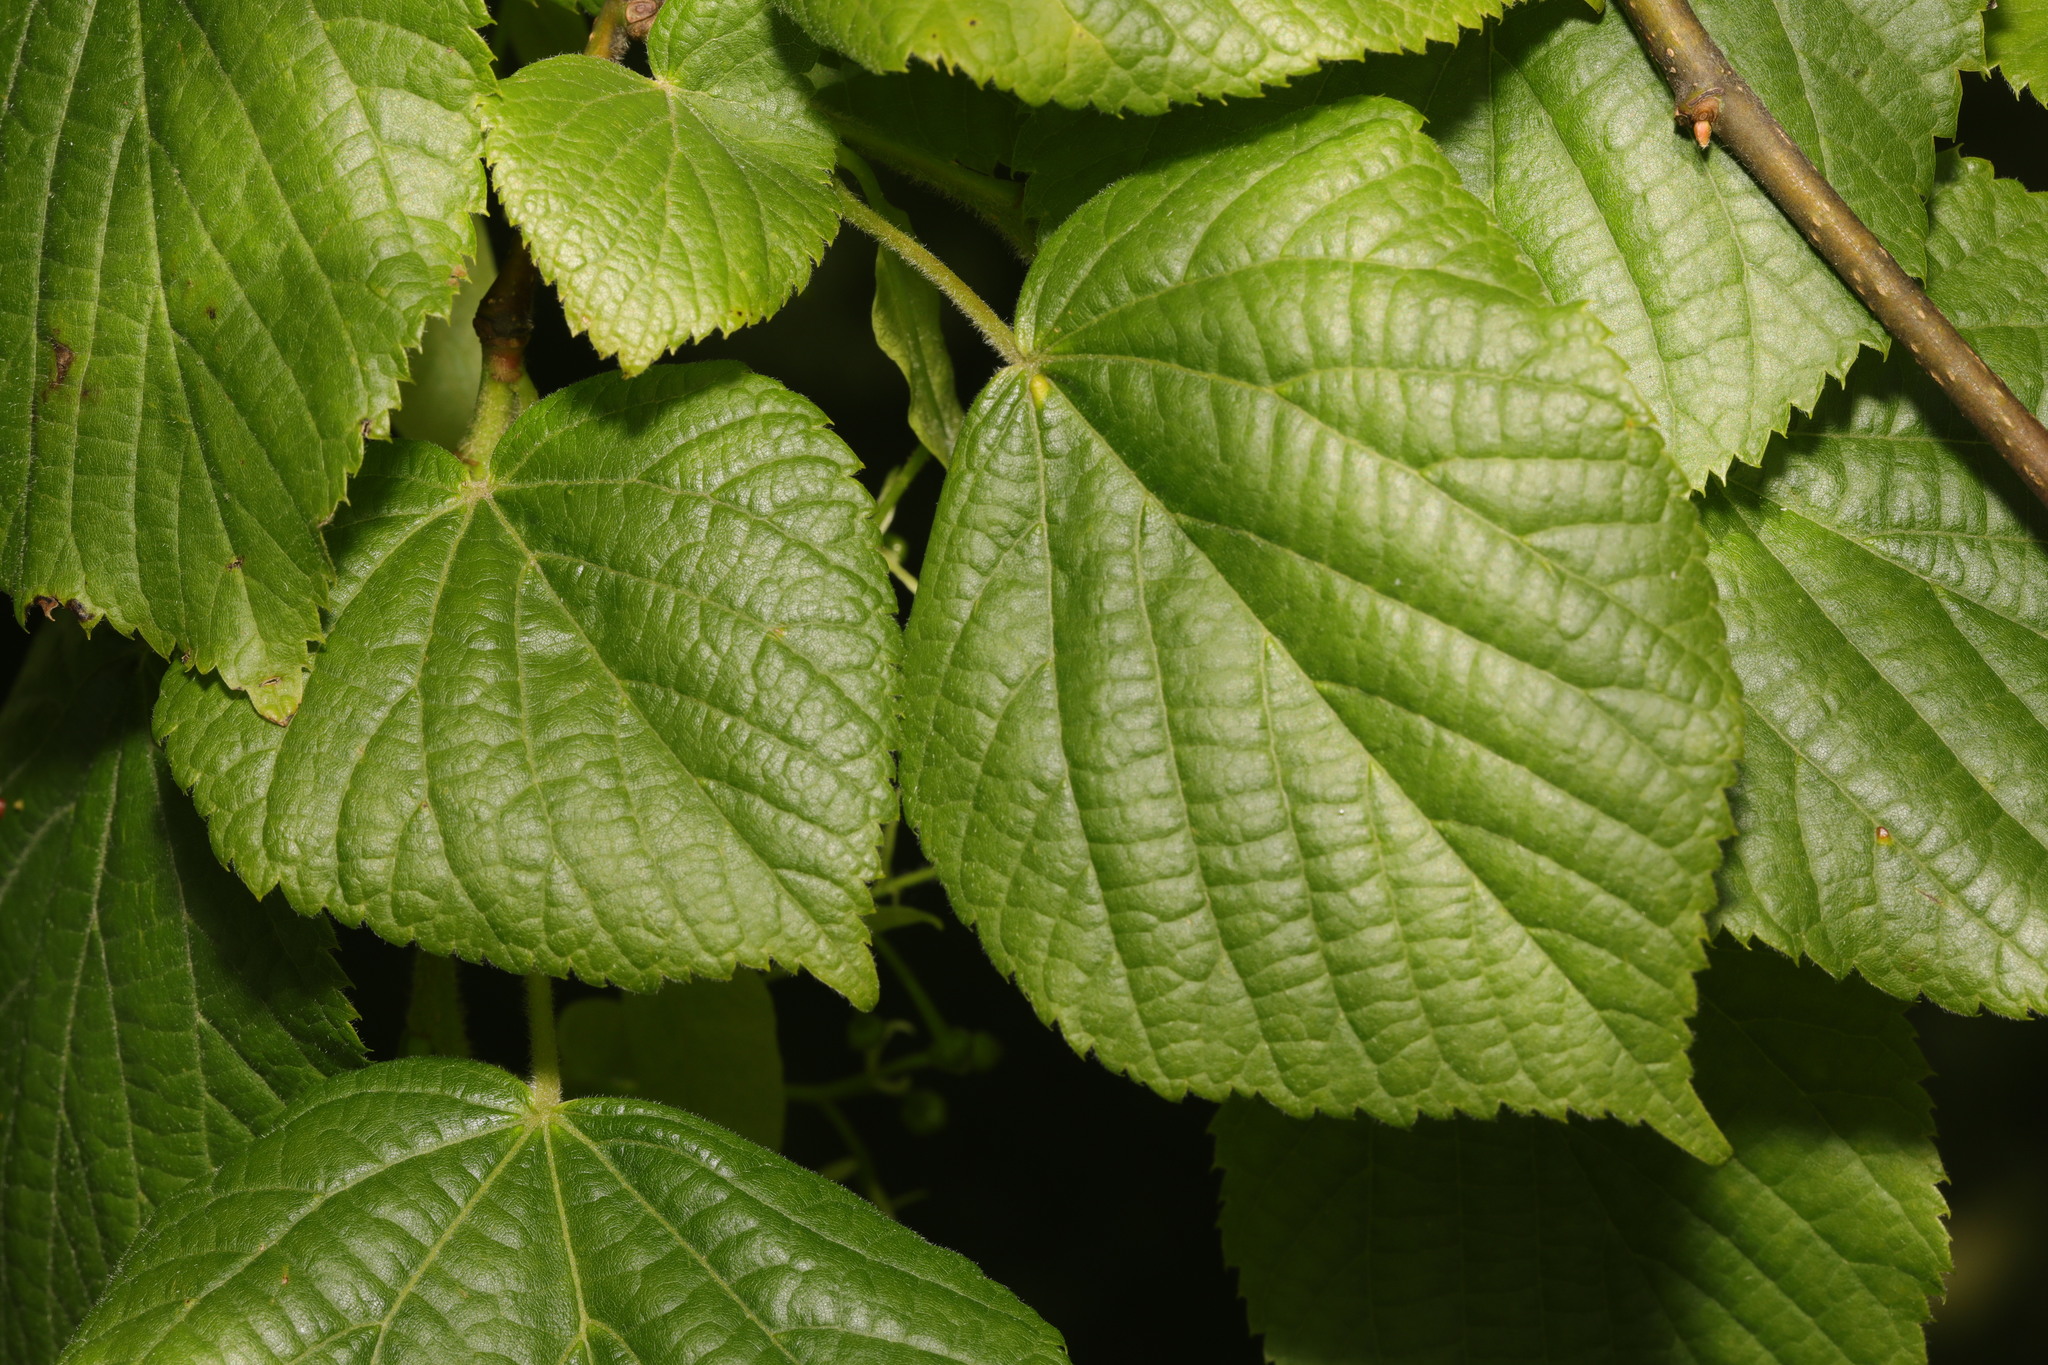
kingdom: Plantae
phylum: Tracheophyta
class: Magnoliopsida
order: Malvales
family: Malvaceae
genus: Tilia
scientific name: Tilia europaea
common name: European linden
